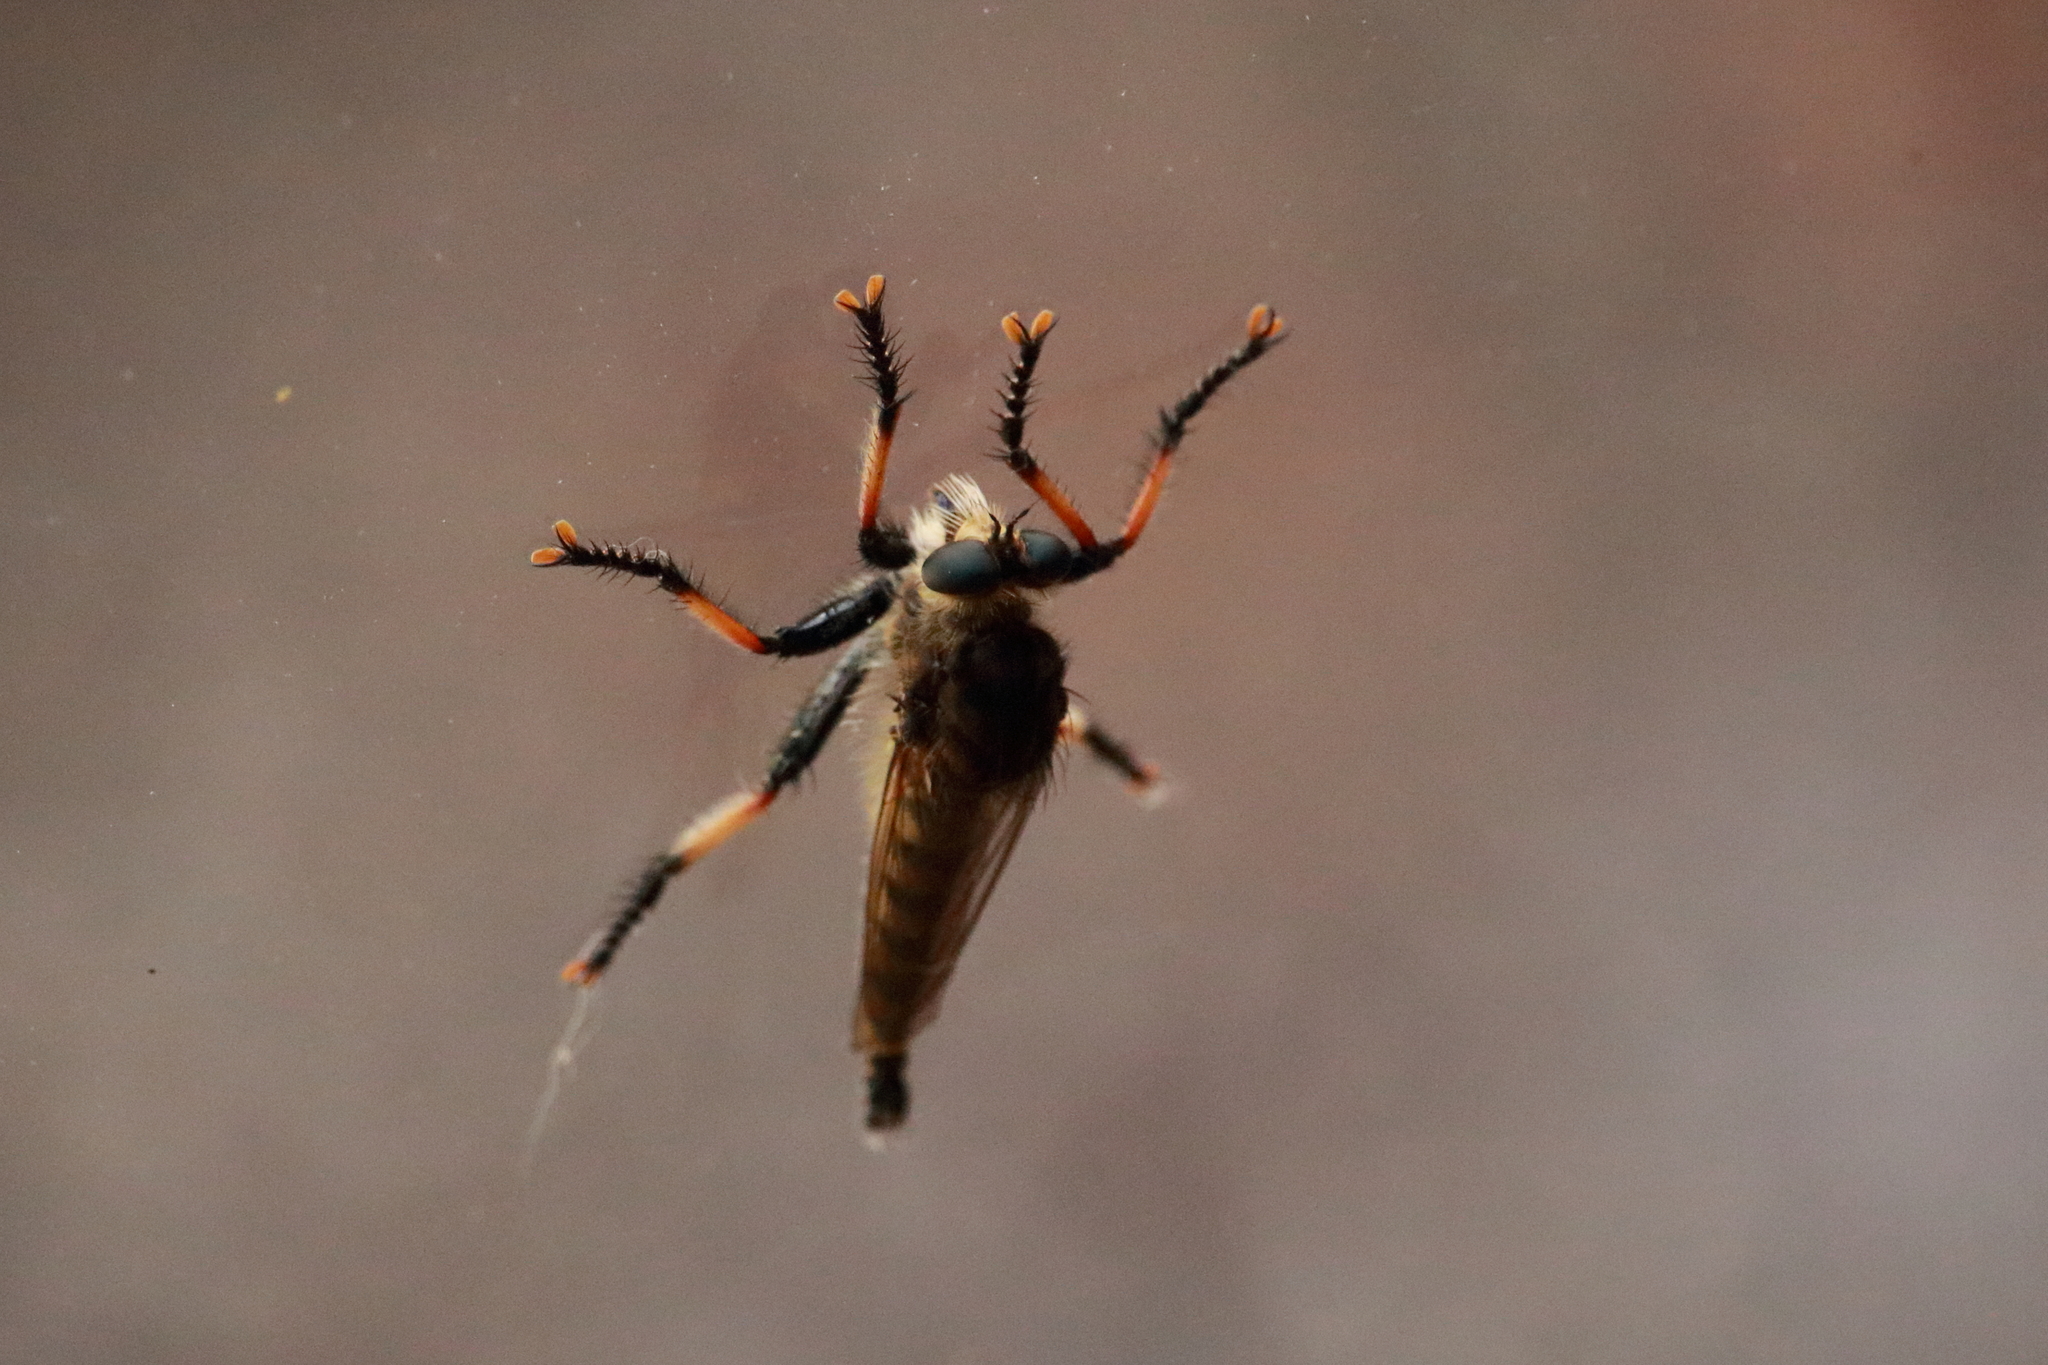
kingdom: Animalia
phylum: Arthropoda
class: Insecta
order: Diptera
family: Asilidae
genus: Promachus
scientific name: Promachus rufipes
